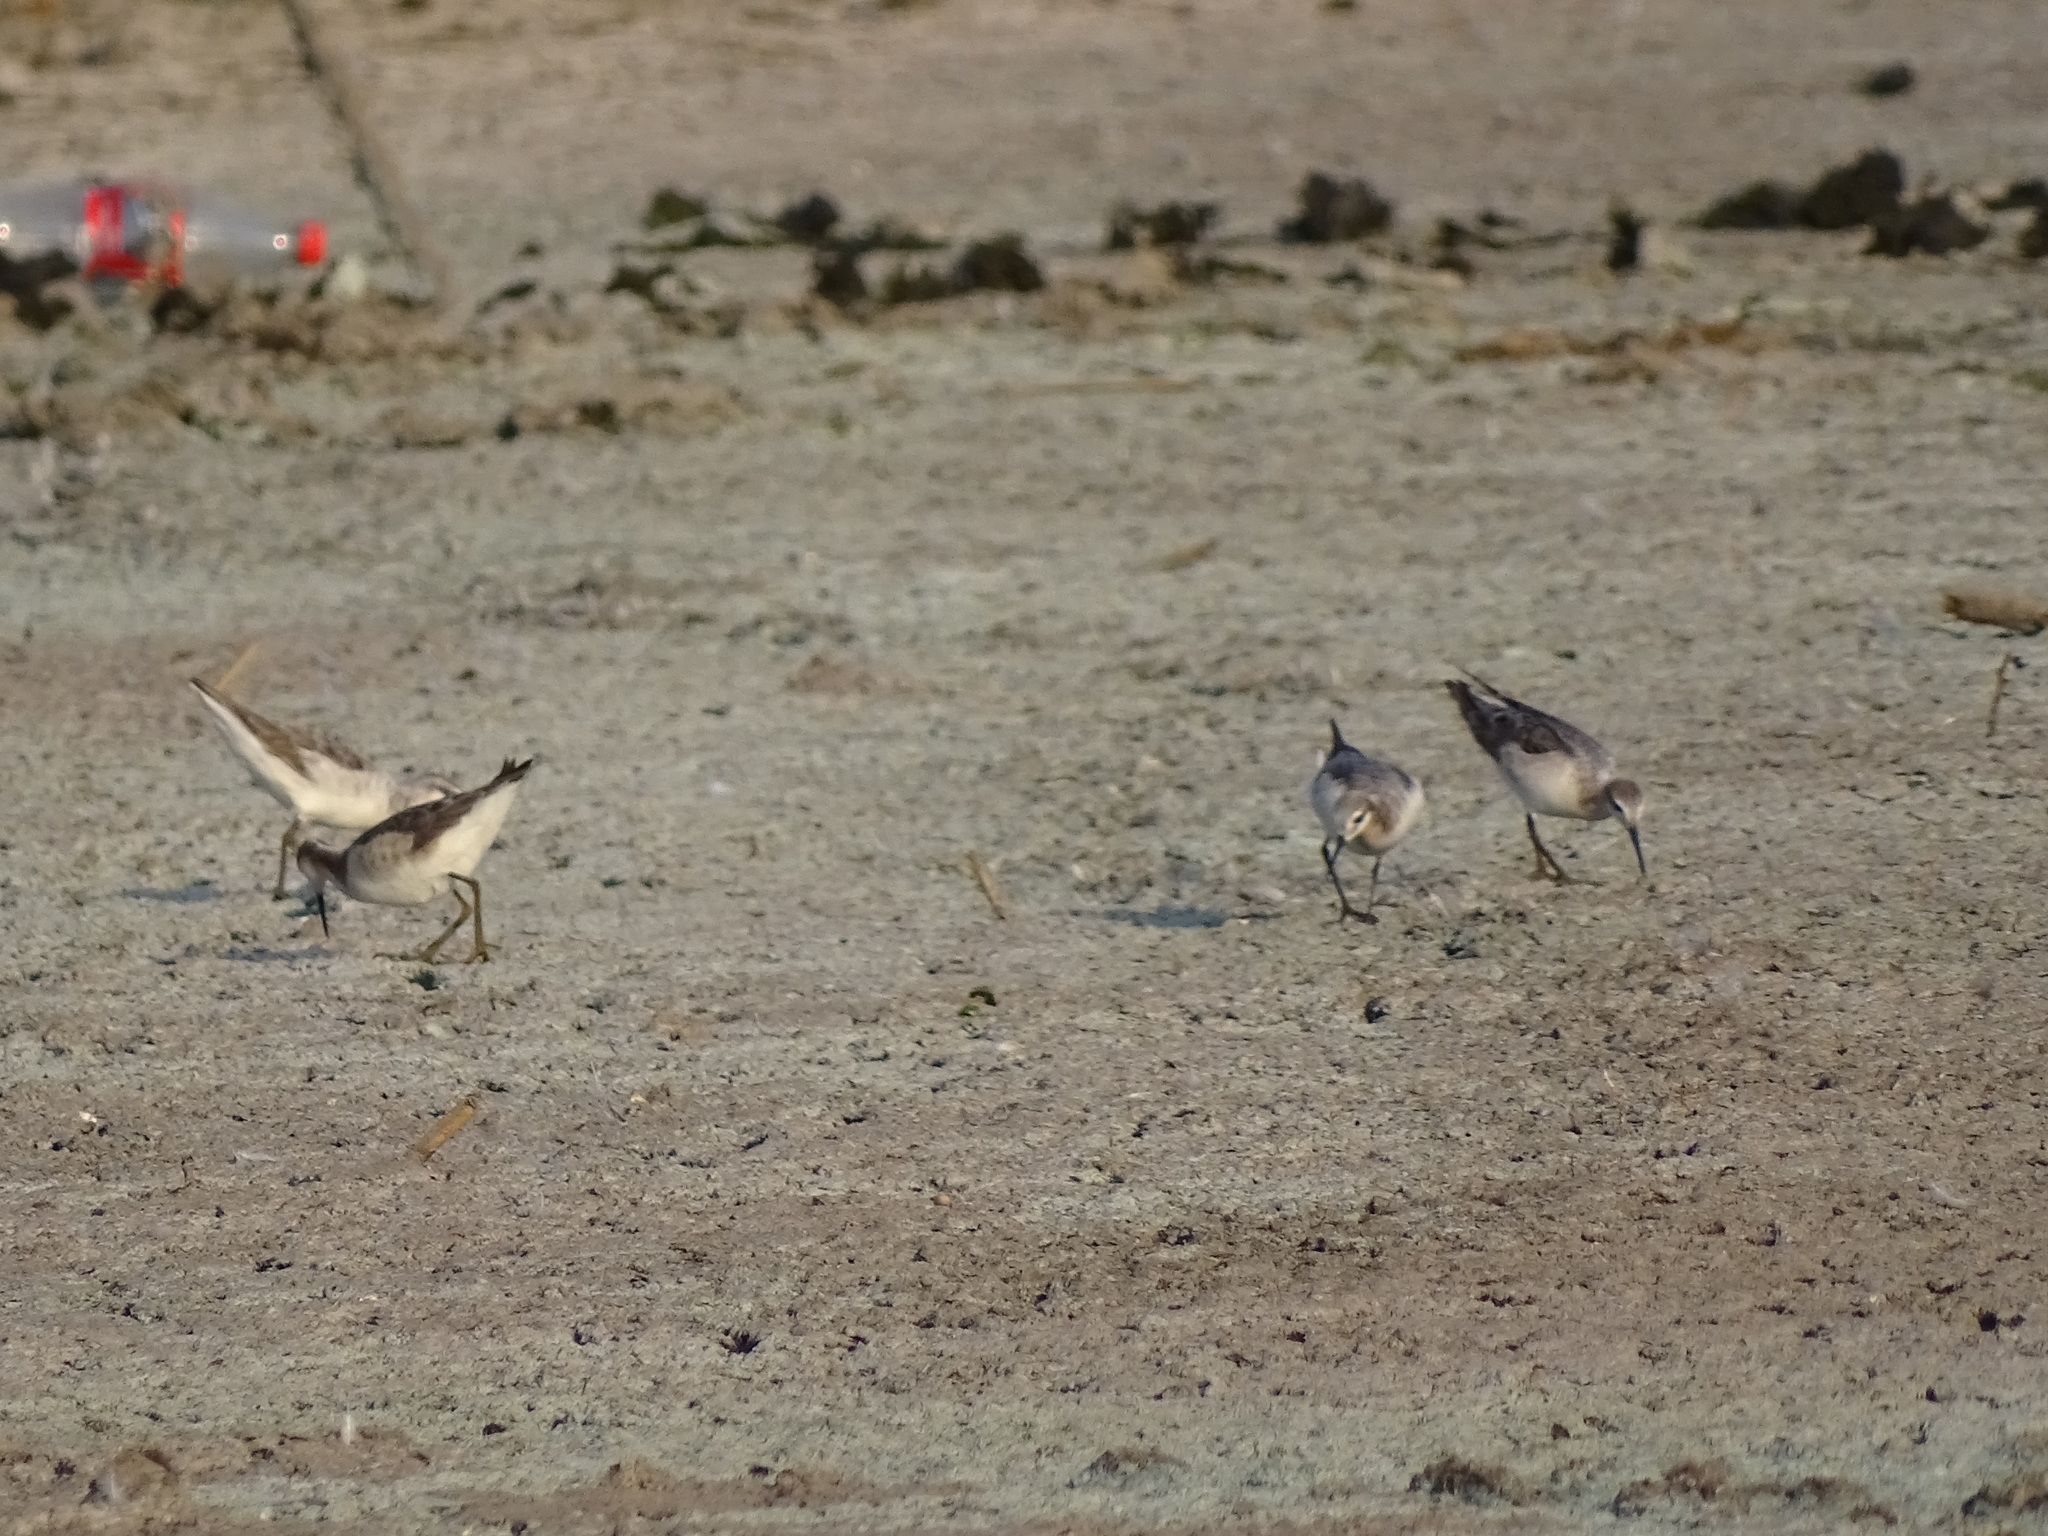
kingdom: Animalia
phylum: Chordata
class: Aves
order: Charadriiformes
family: Scolopacidae
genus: Phalaropus
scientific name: Phalaropus tricolor
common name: Wilson's phalarope
